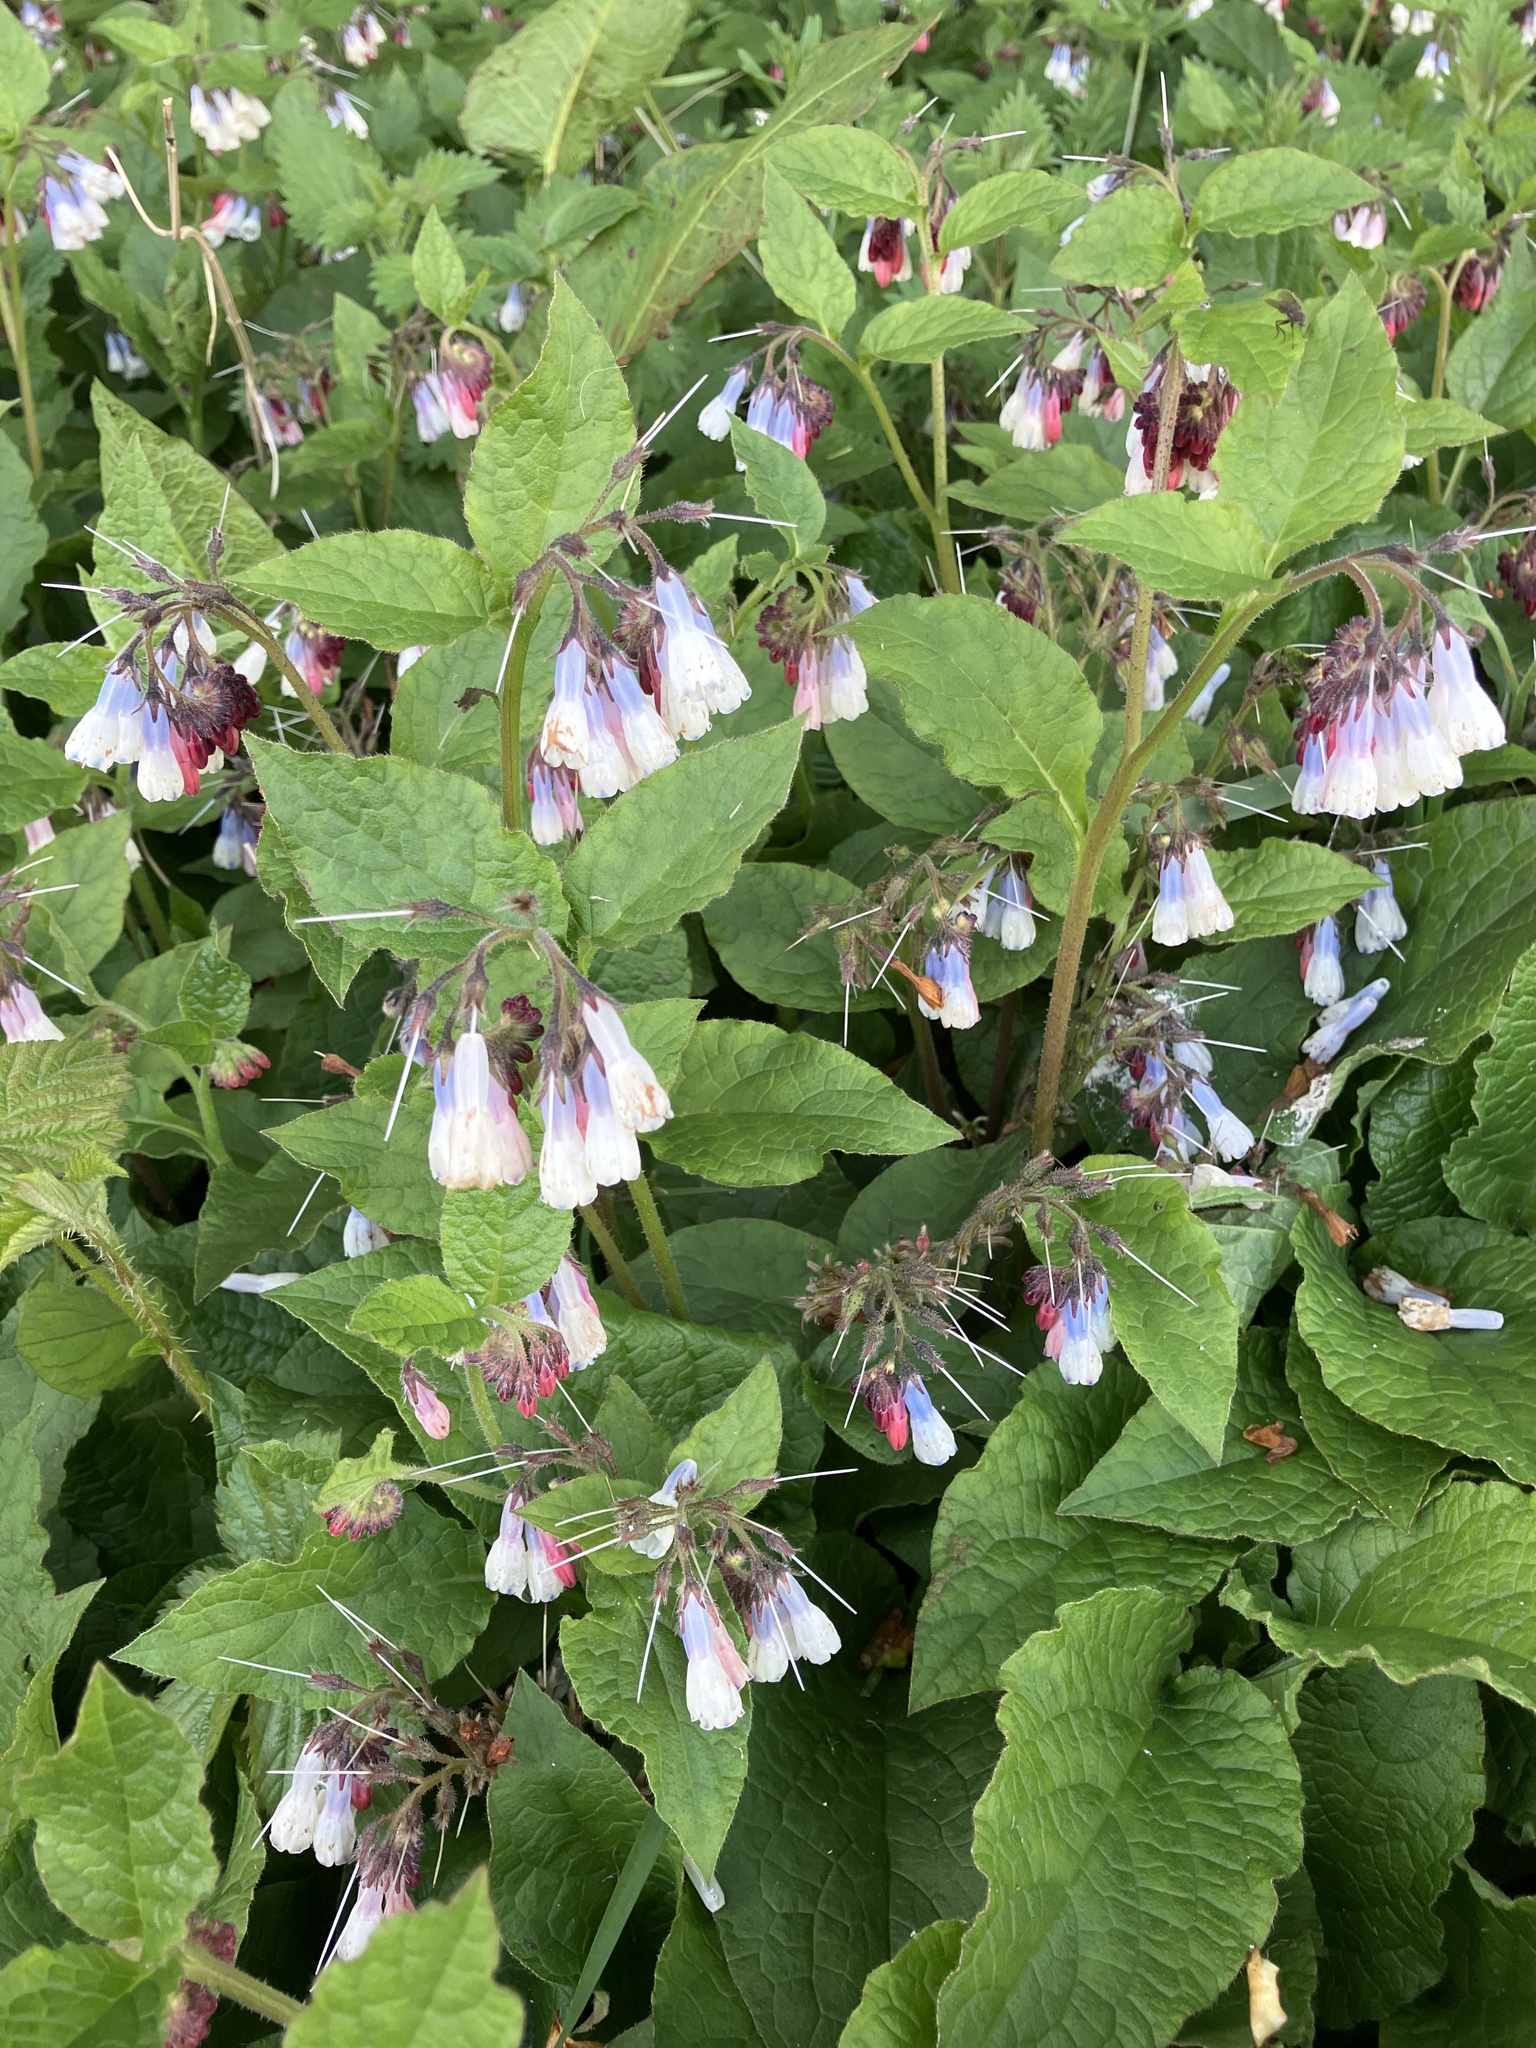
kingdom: Plantae
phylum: Tracheophyta
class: Magnoliopsida
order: Boraginales
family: Boraginaceae
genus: Symphytum
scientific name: Symphytum hidcotense
